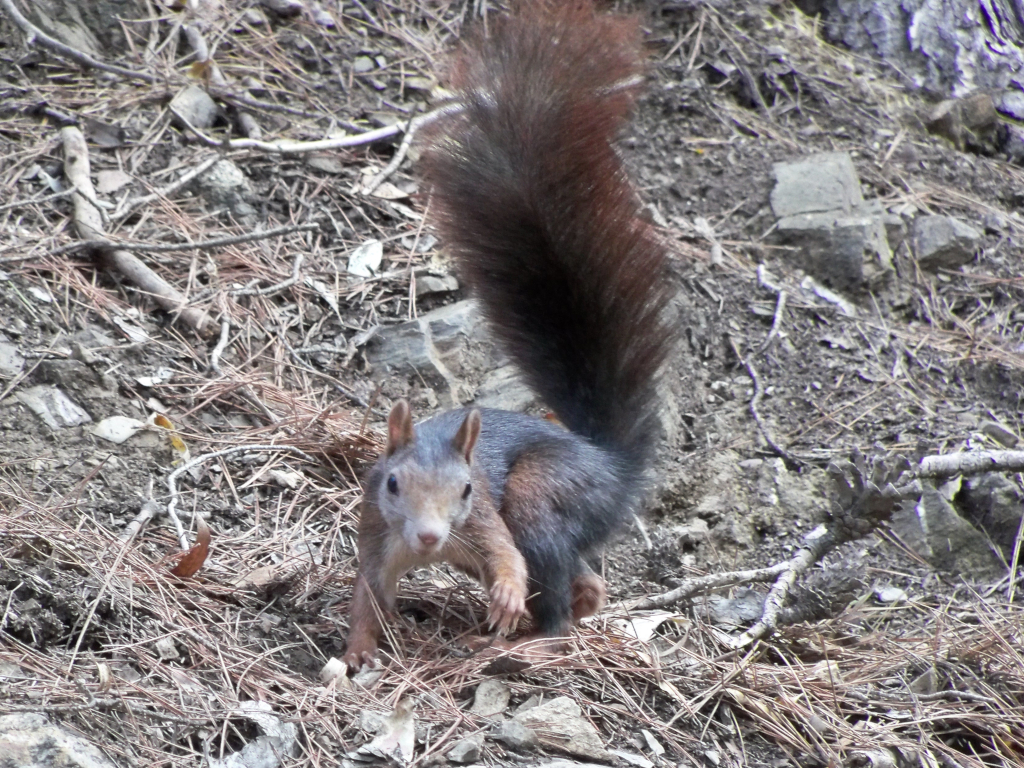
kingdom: Animalia
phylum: Chordata
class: Mammalia
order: Rodentia
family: Sciuridae
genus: Sciurus
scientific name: Sciurus vulgaris
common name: Eurasian red squirrel
